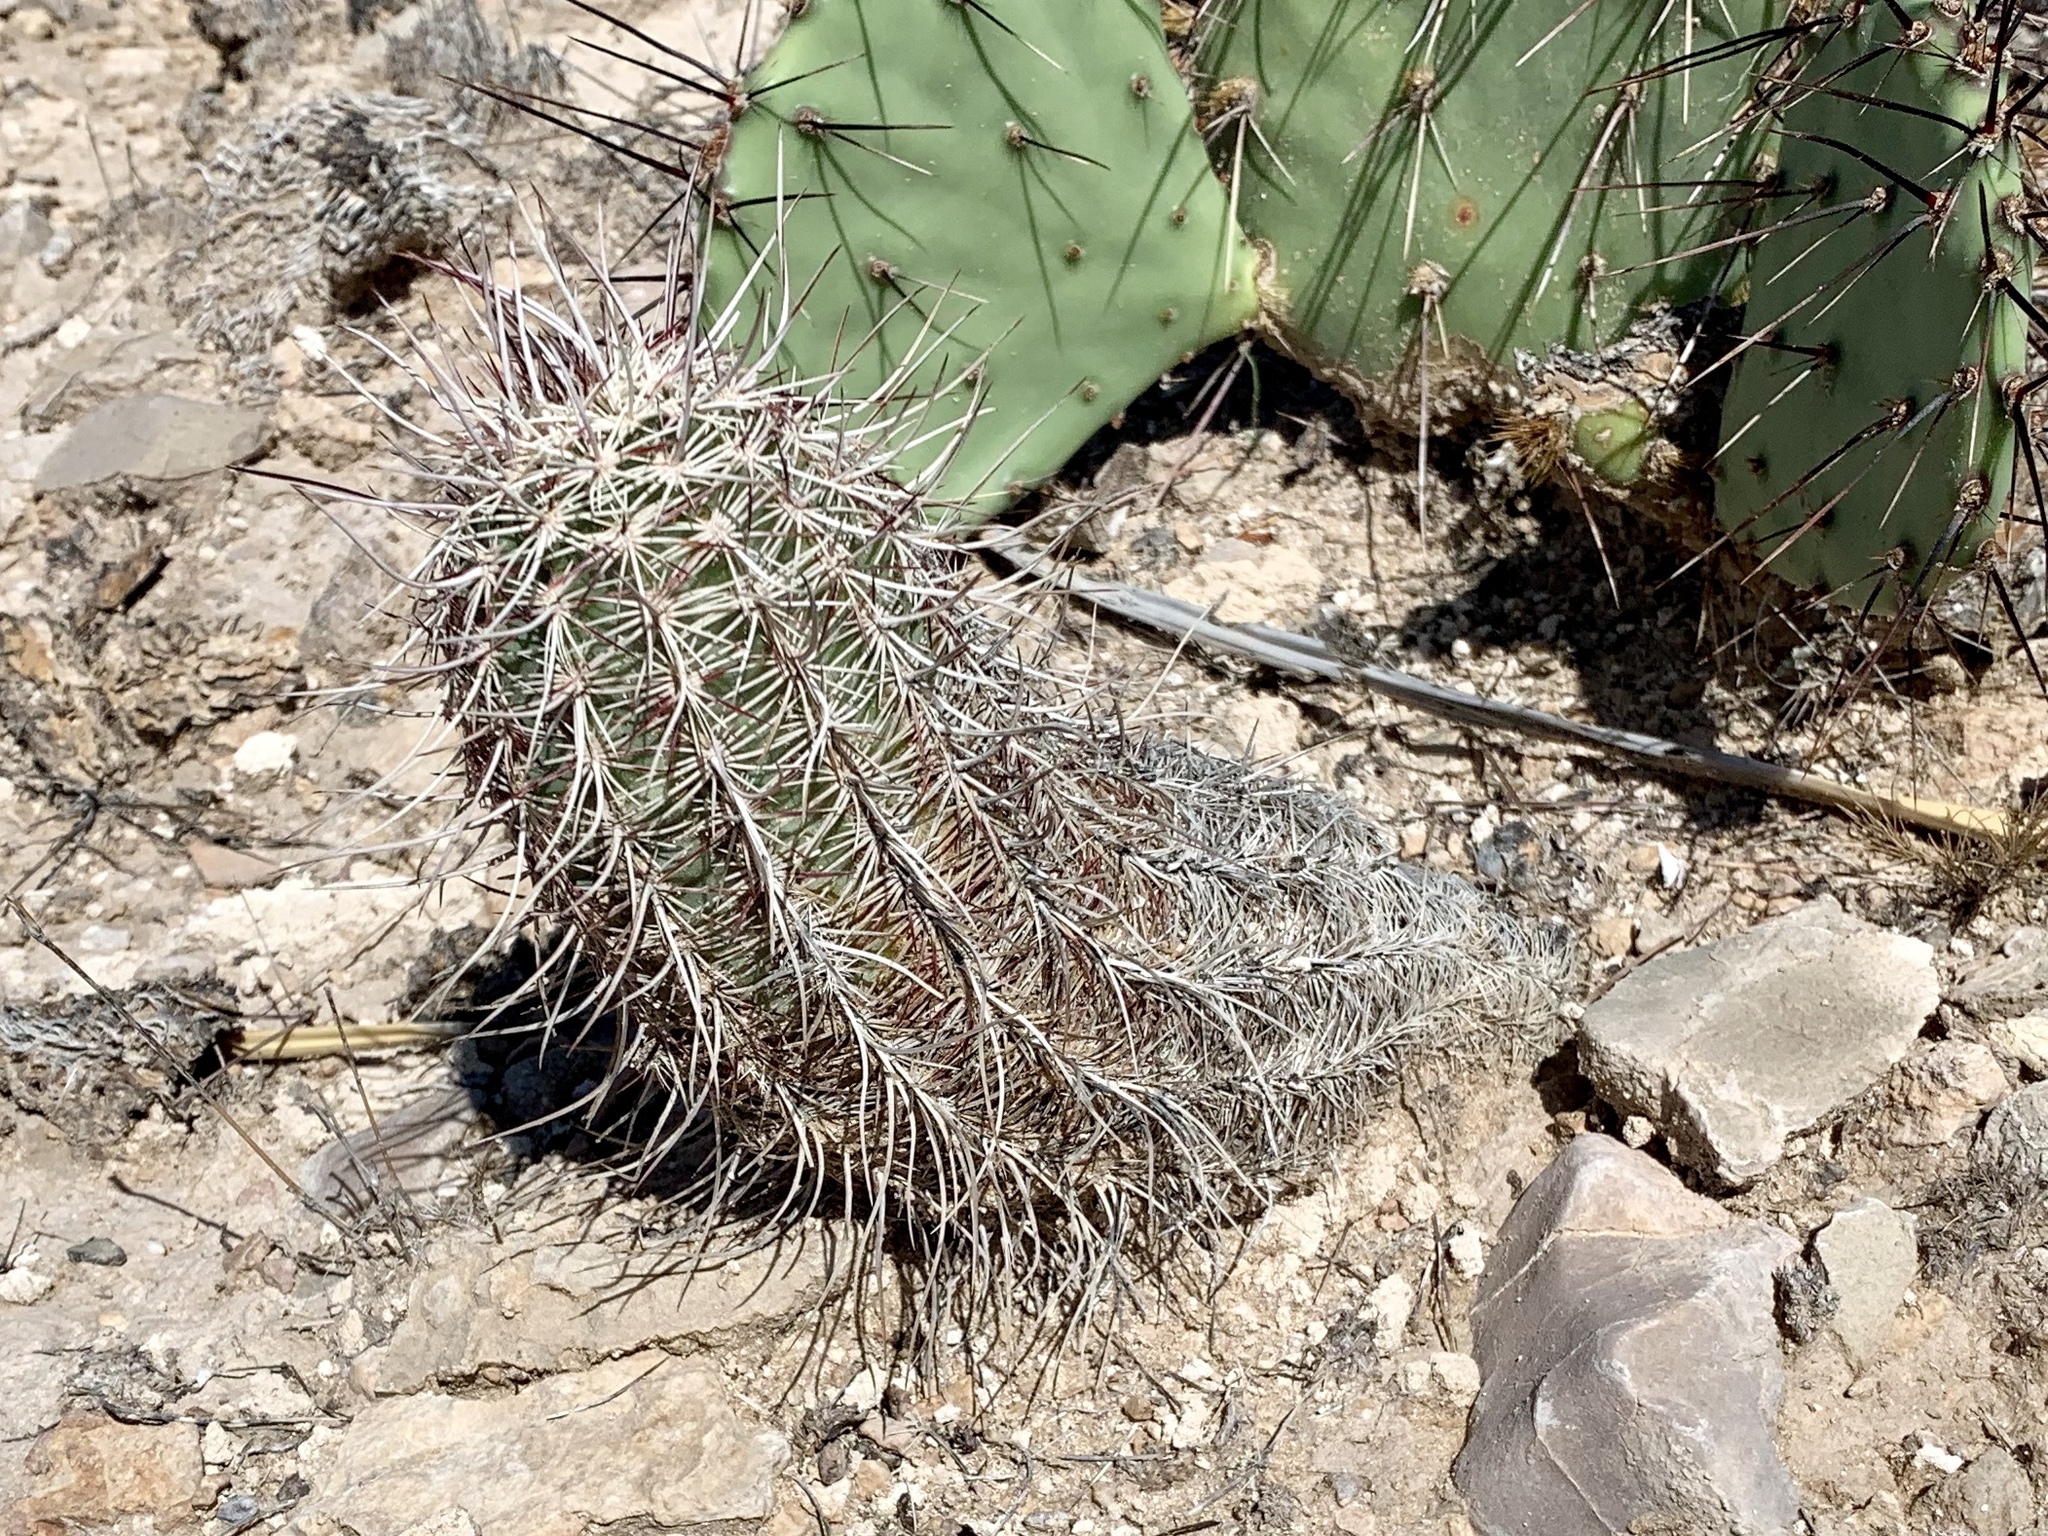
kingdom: Plantae
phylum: Tracheophyta
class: Magnoliopsida
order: Caryophyllales
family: Cactaceae
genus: Echinocereus
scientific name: Echinocereus viridiflorus
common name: Nylon hedgehog cactus
